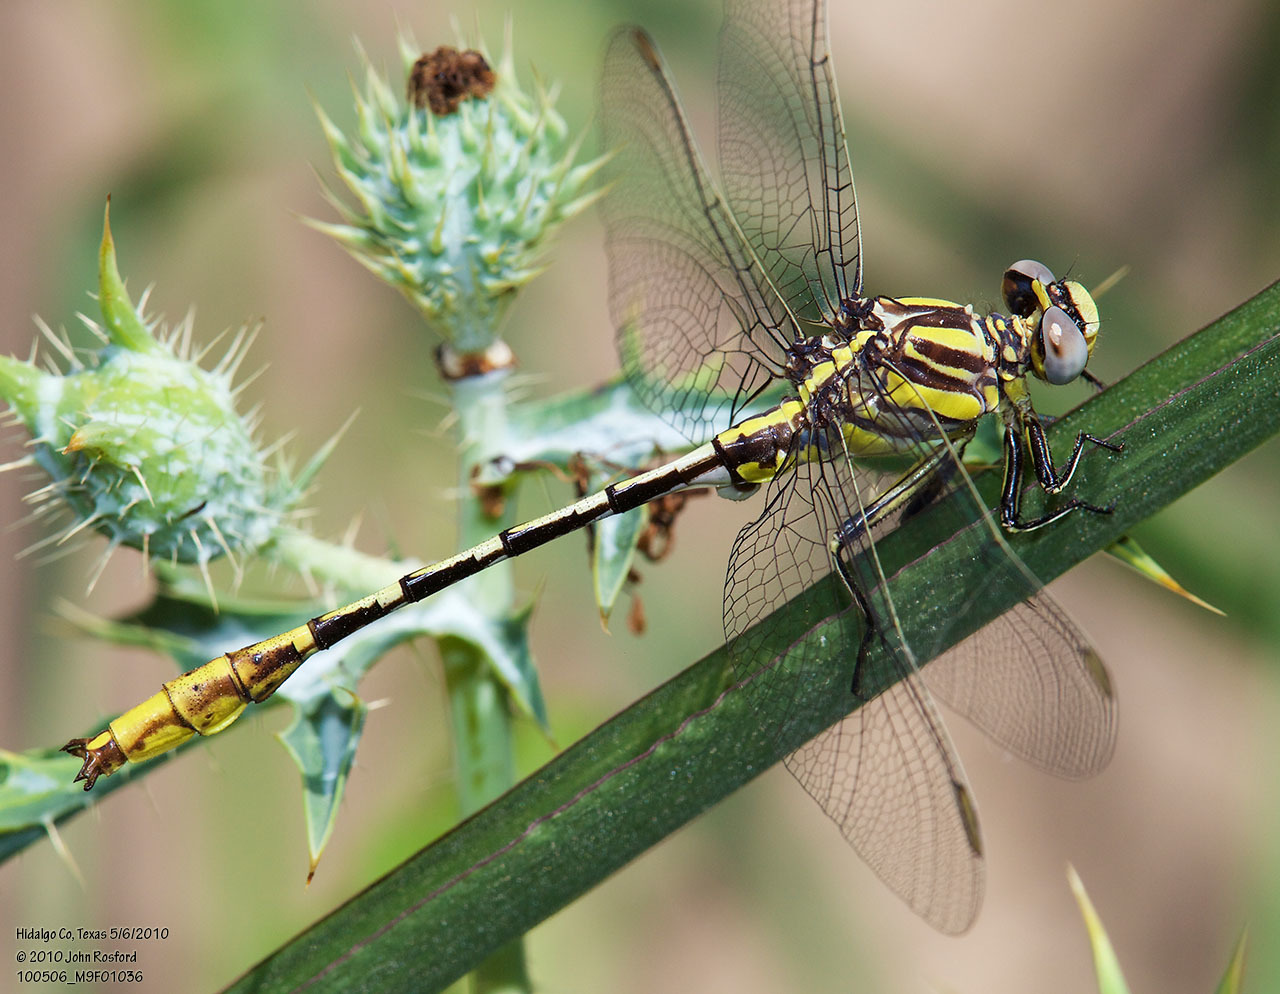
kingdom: Animalia
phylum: Arthropoda
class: Insecta
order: Odonata
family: Gomphidae
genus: Phanogomphus
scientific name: Phanogomphus militaris
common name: Sulphur-tipped clubtail
